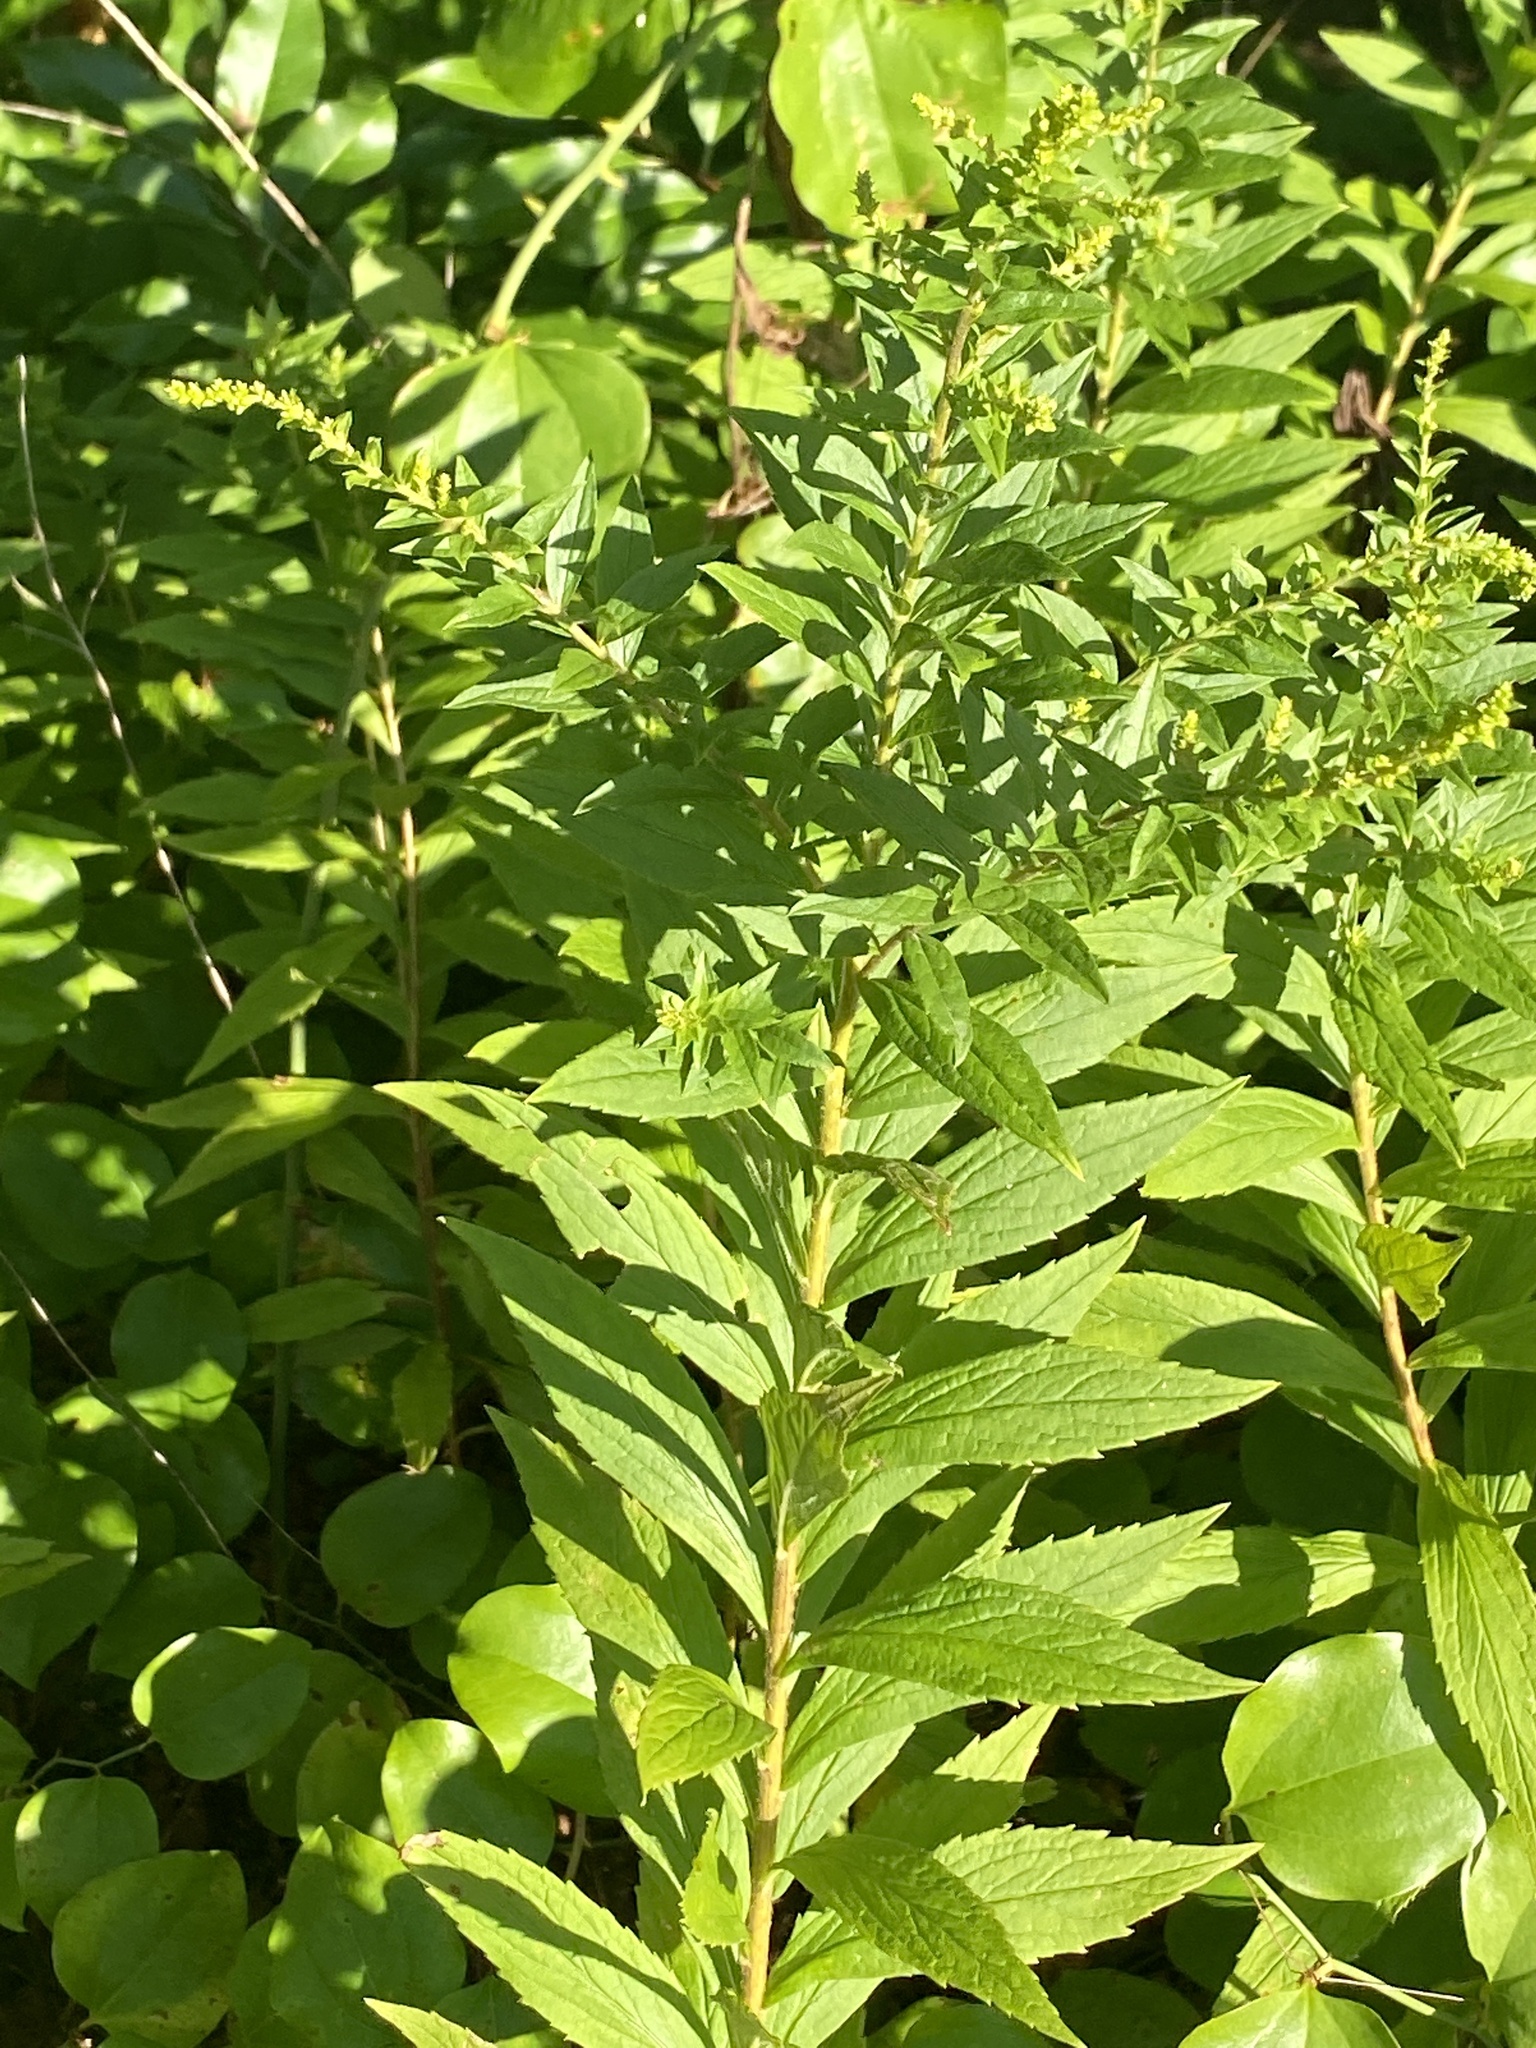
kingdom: Plantae
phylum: Tracheophyta
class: Magnoliopsida
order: Asterales
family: Asteraceae
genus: Solidago
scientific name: Solidago rugosa
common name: Rough-stemmed goldenrod
